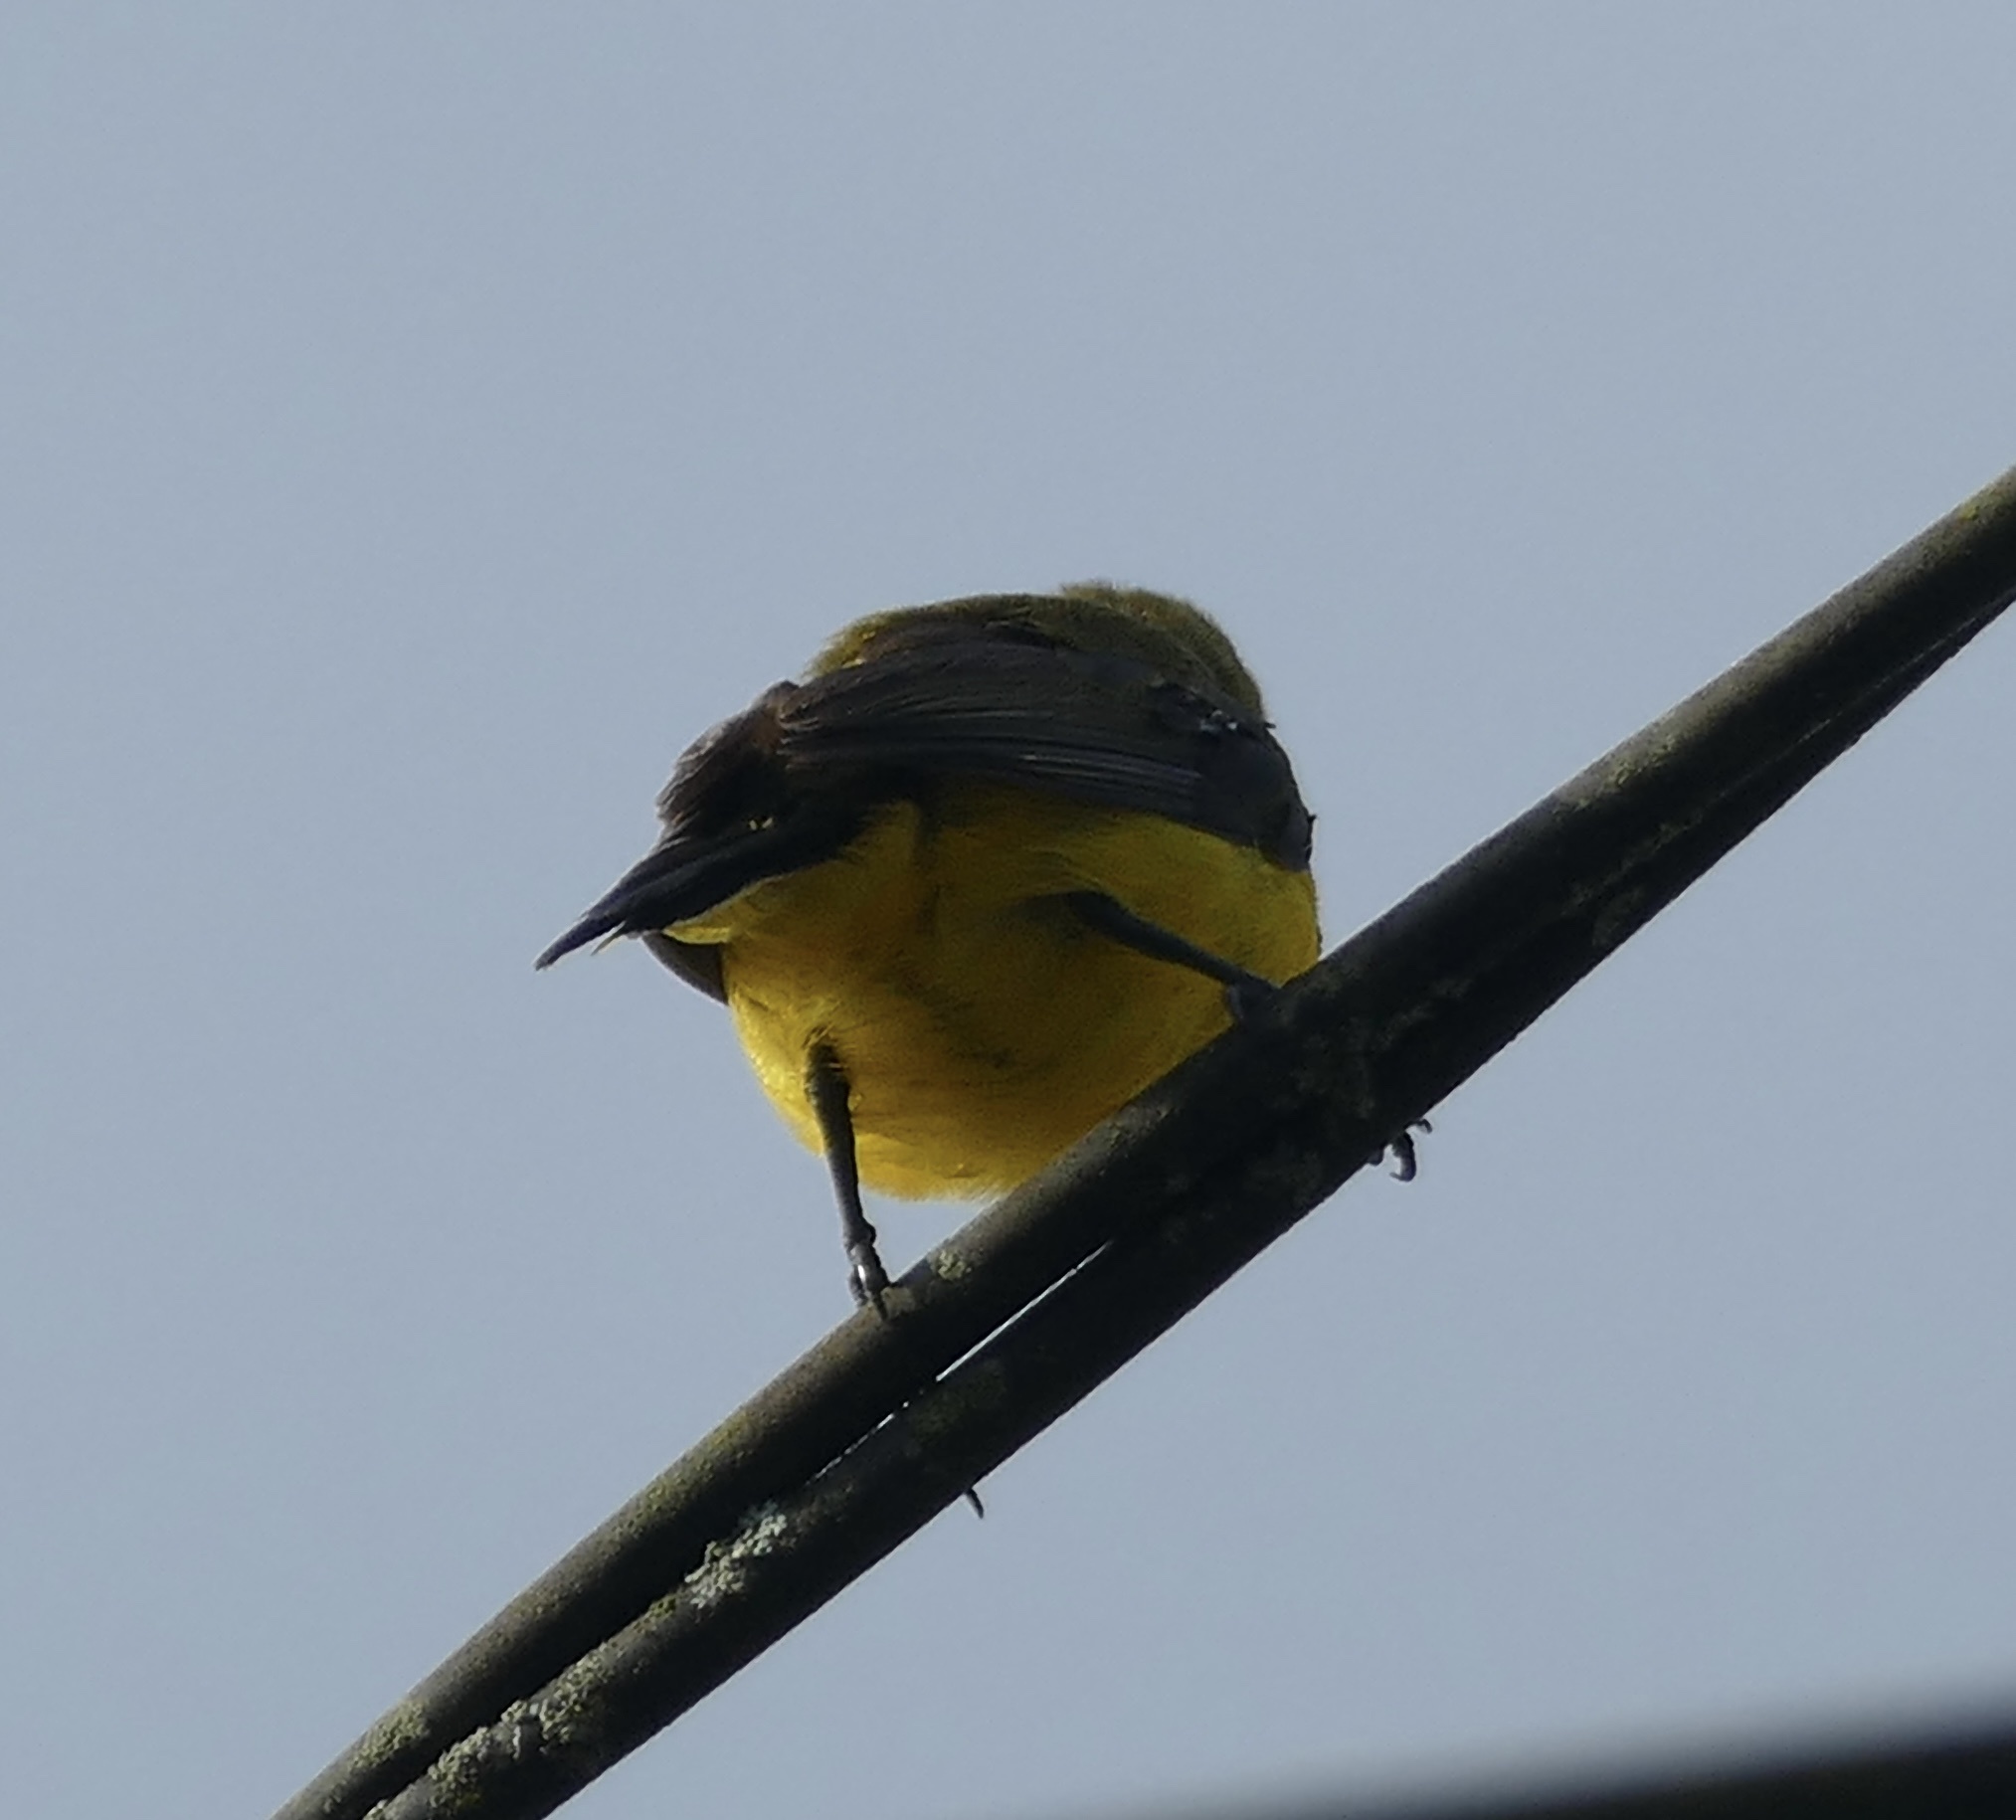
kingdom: Animalia
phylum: Chordata
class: Aves
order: Passeriformes
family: Nectariniidae
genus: Cinnyris
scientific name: Cinnyris
